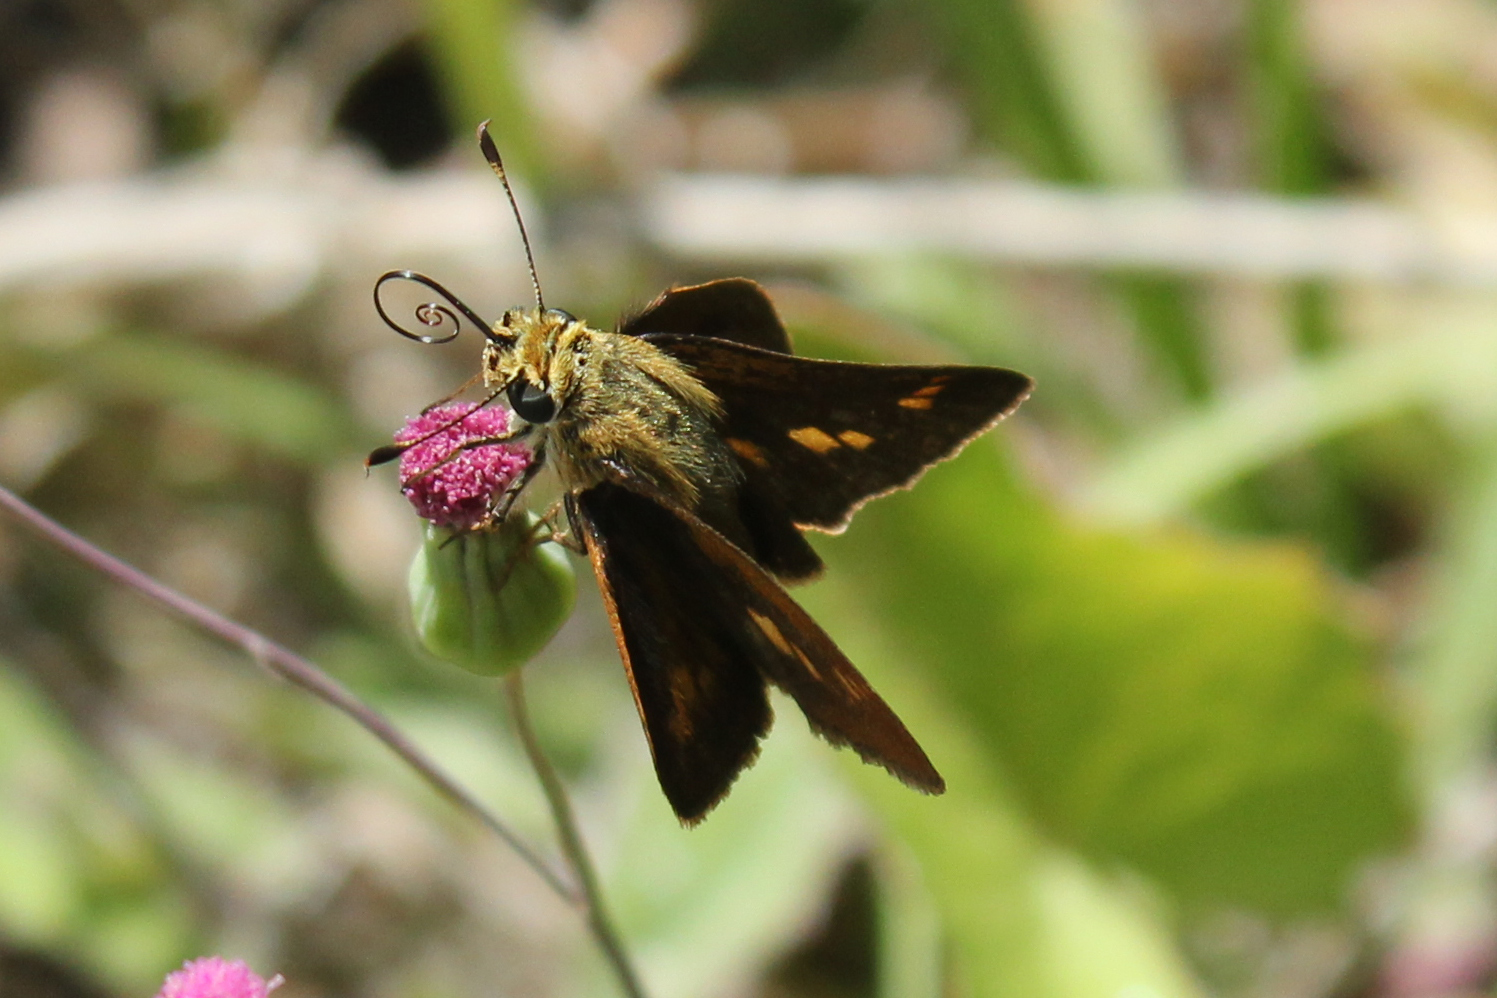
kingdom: Animalia
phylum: Arthropoda
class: Insecta
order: Lepidoptera
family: Hesperiidae
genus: Polites
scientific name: Polites otho
